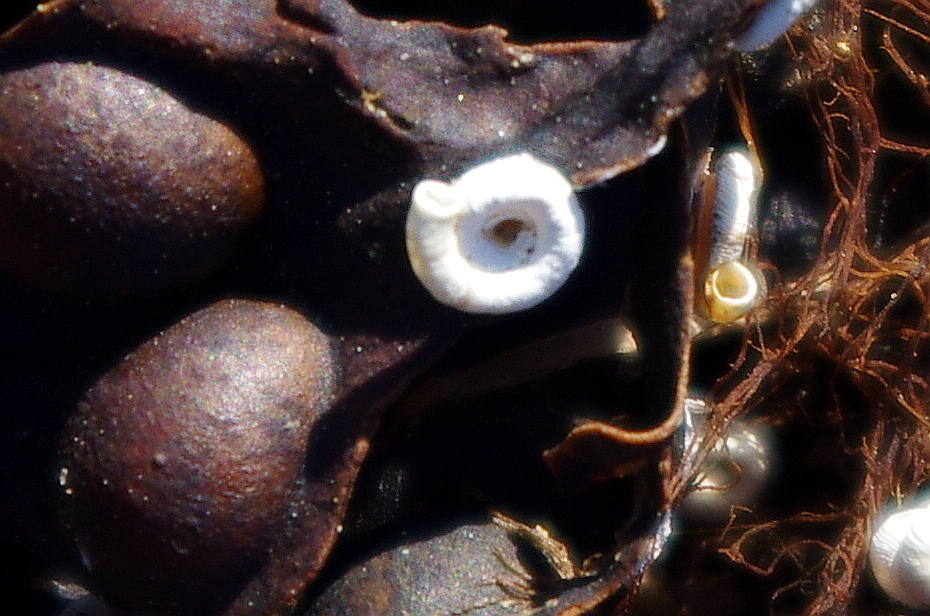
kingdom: Animalia
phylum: Annelida
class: Polychaeta
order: Sabellida
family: Serpulidae
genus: Spirorbis
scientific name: Spirorbis
